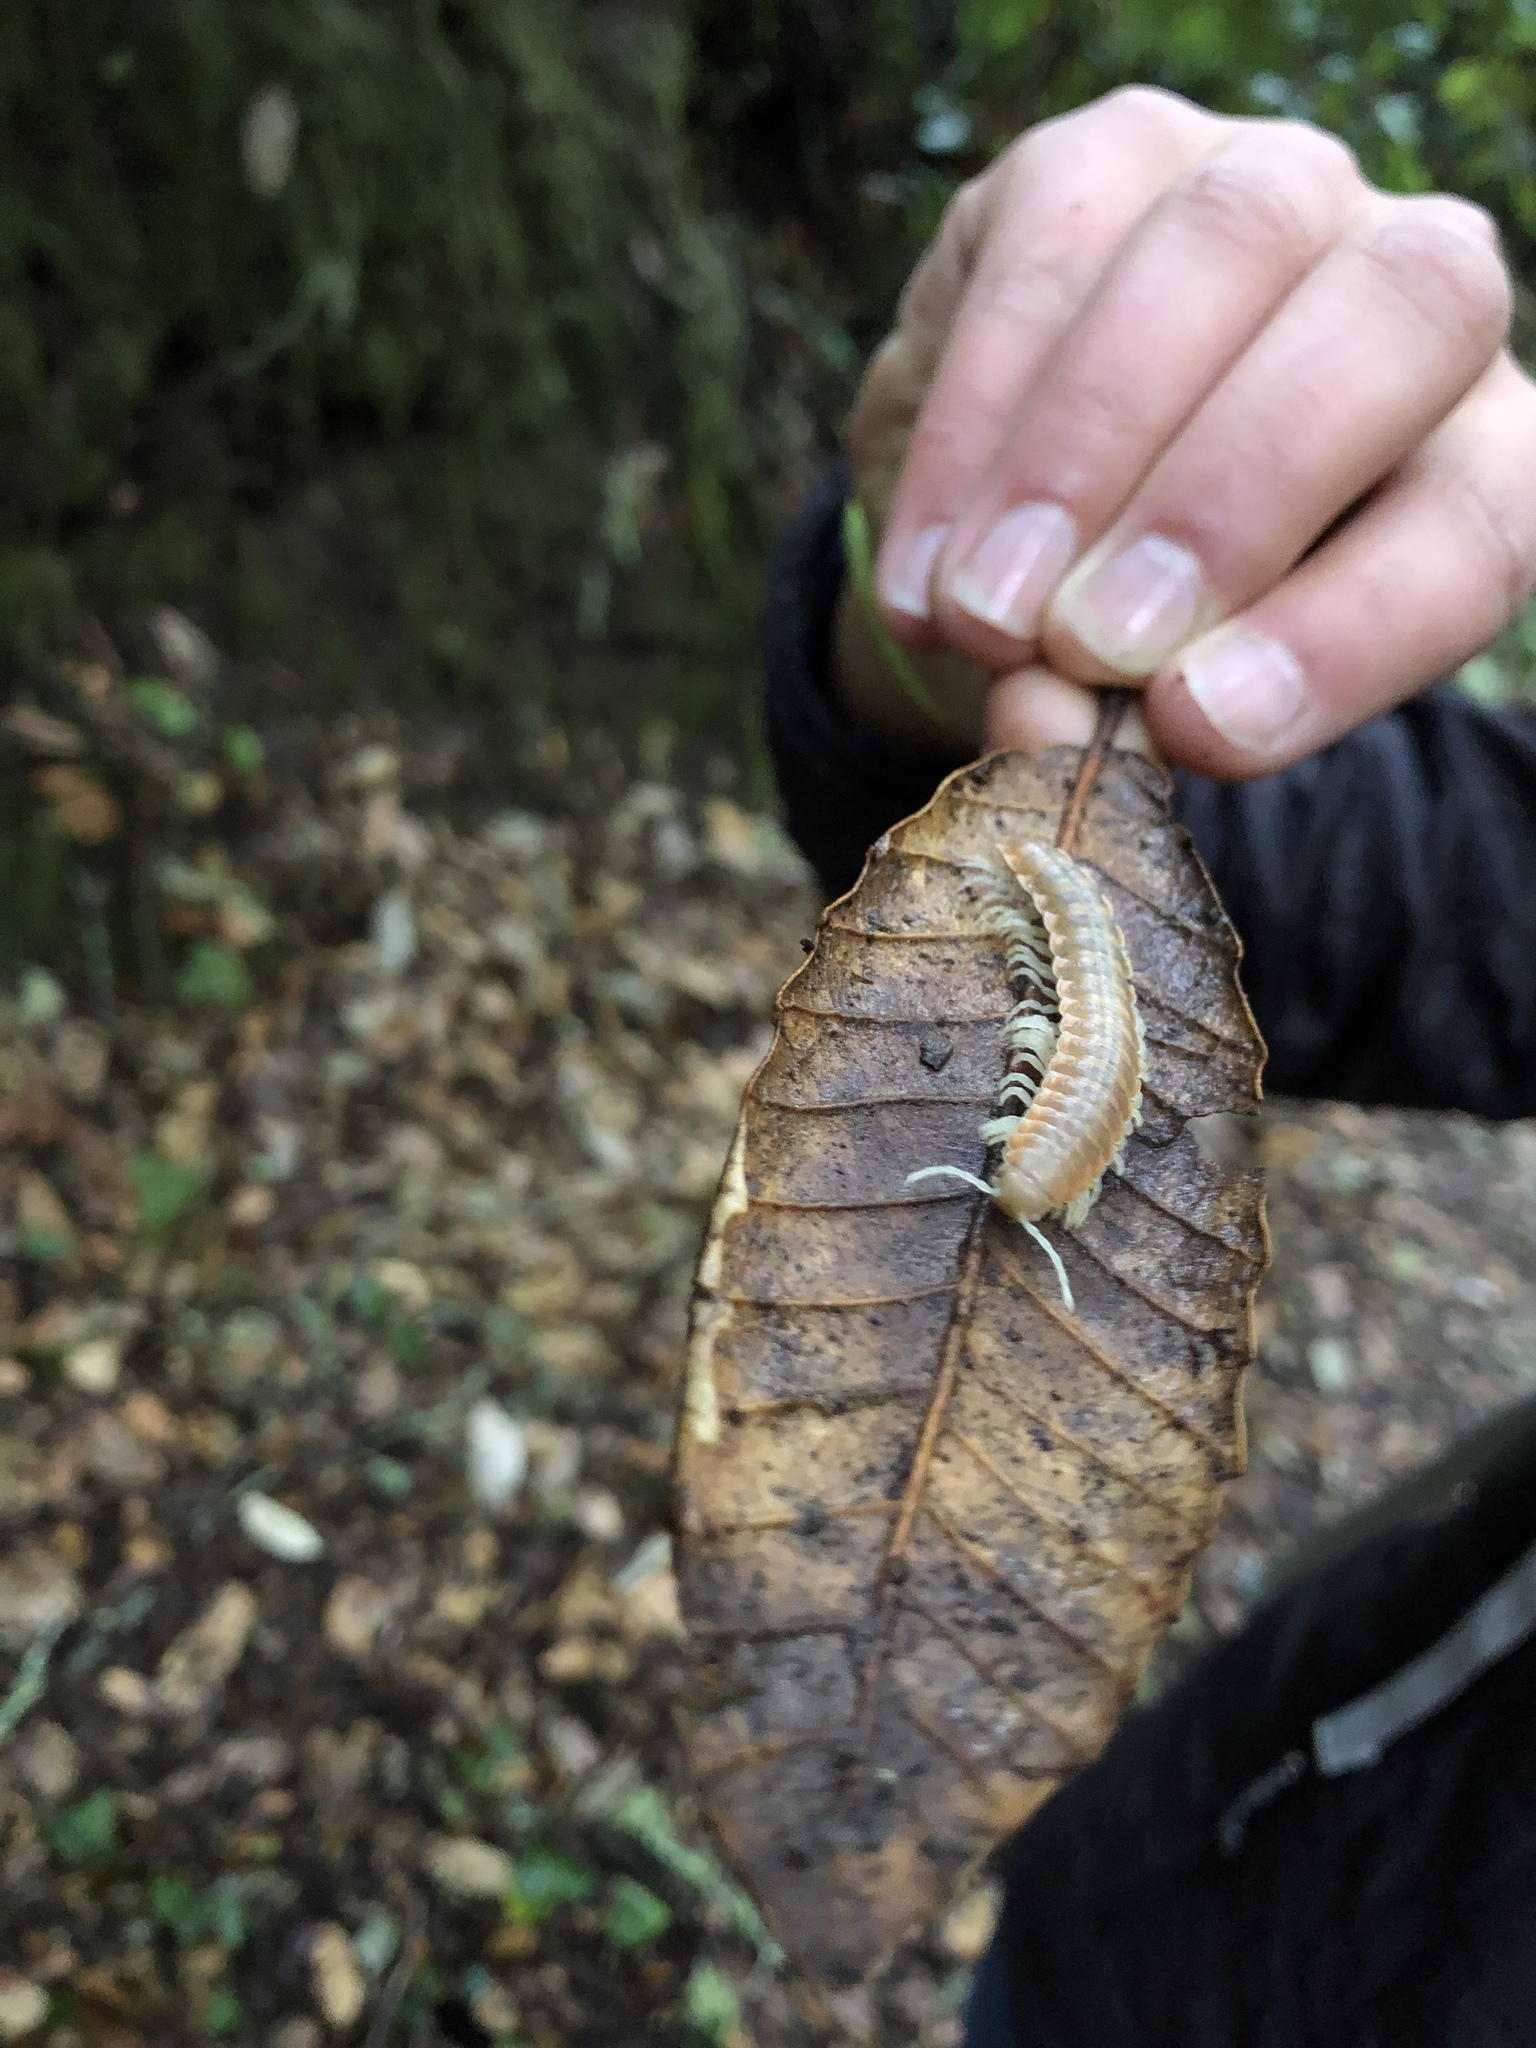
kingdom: Animalia
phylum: Arthropoda
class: Diplopoda
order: Polydesmida
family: Xystodesmidae
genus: Xystocheir
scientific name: Xystocheir dissecta
